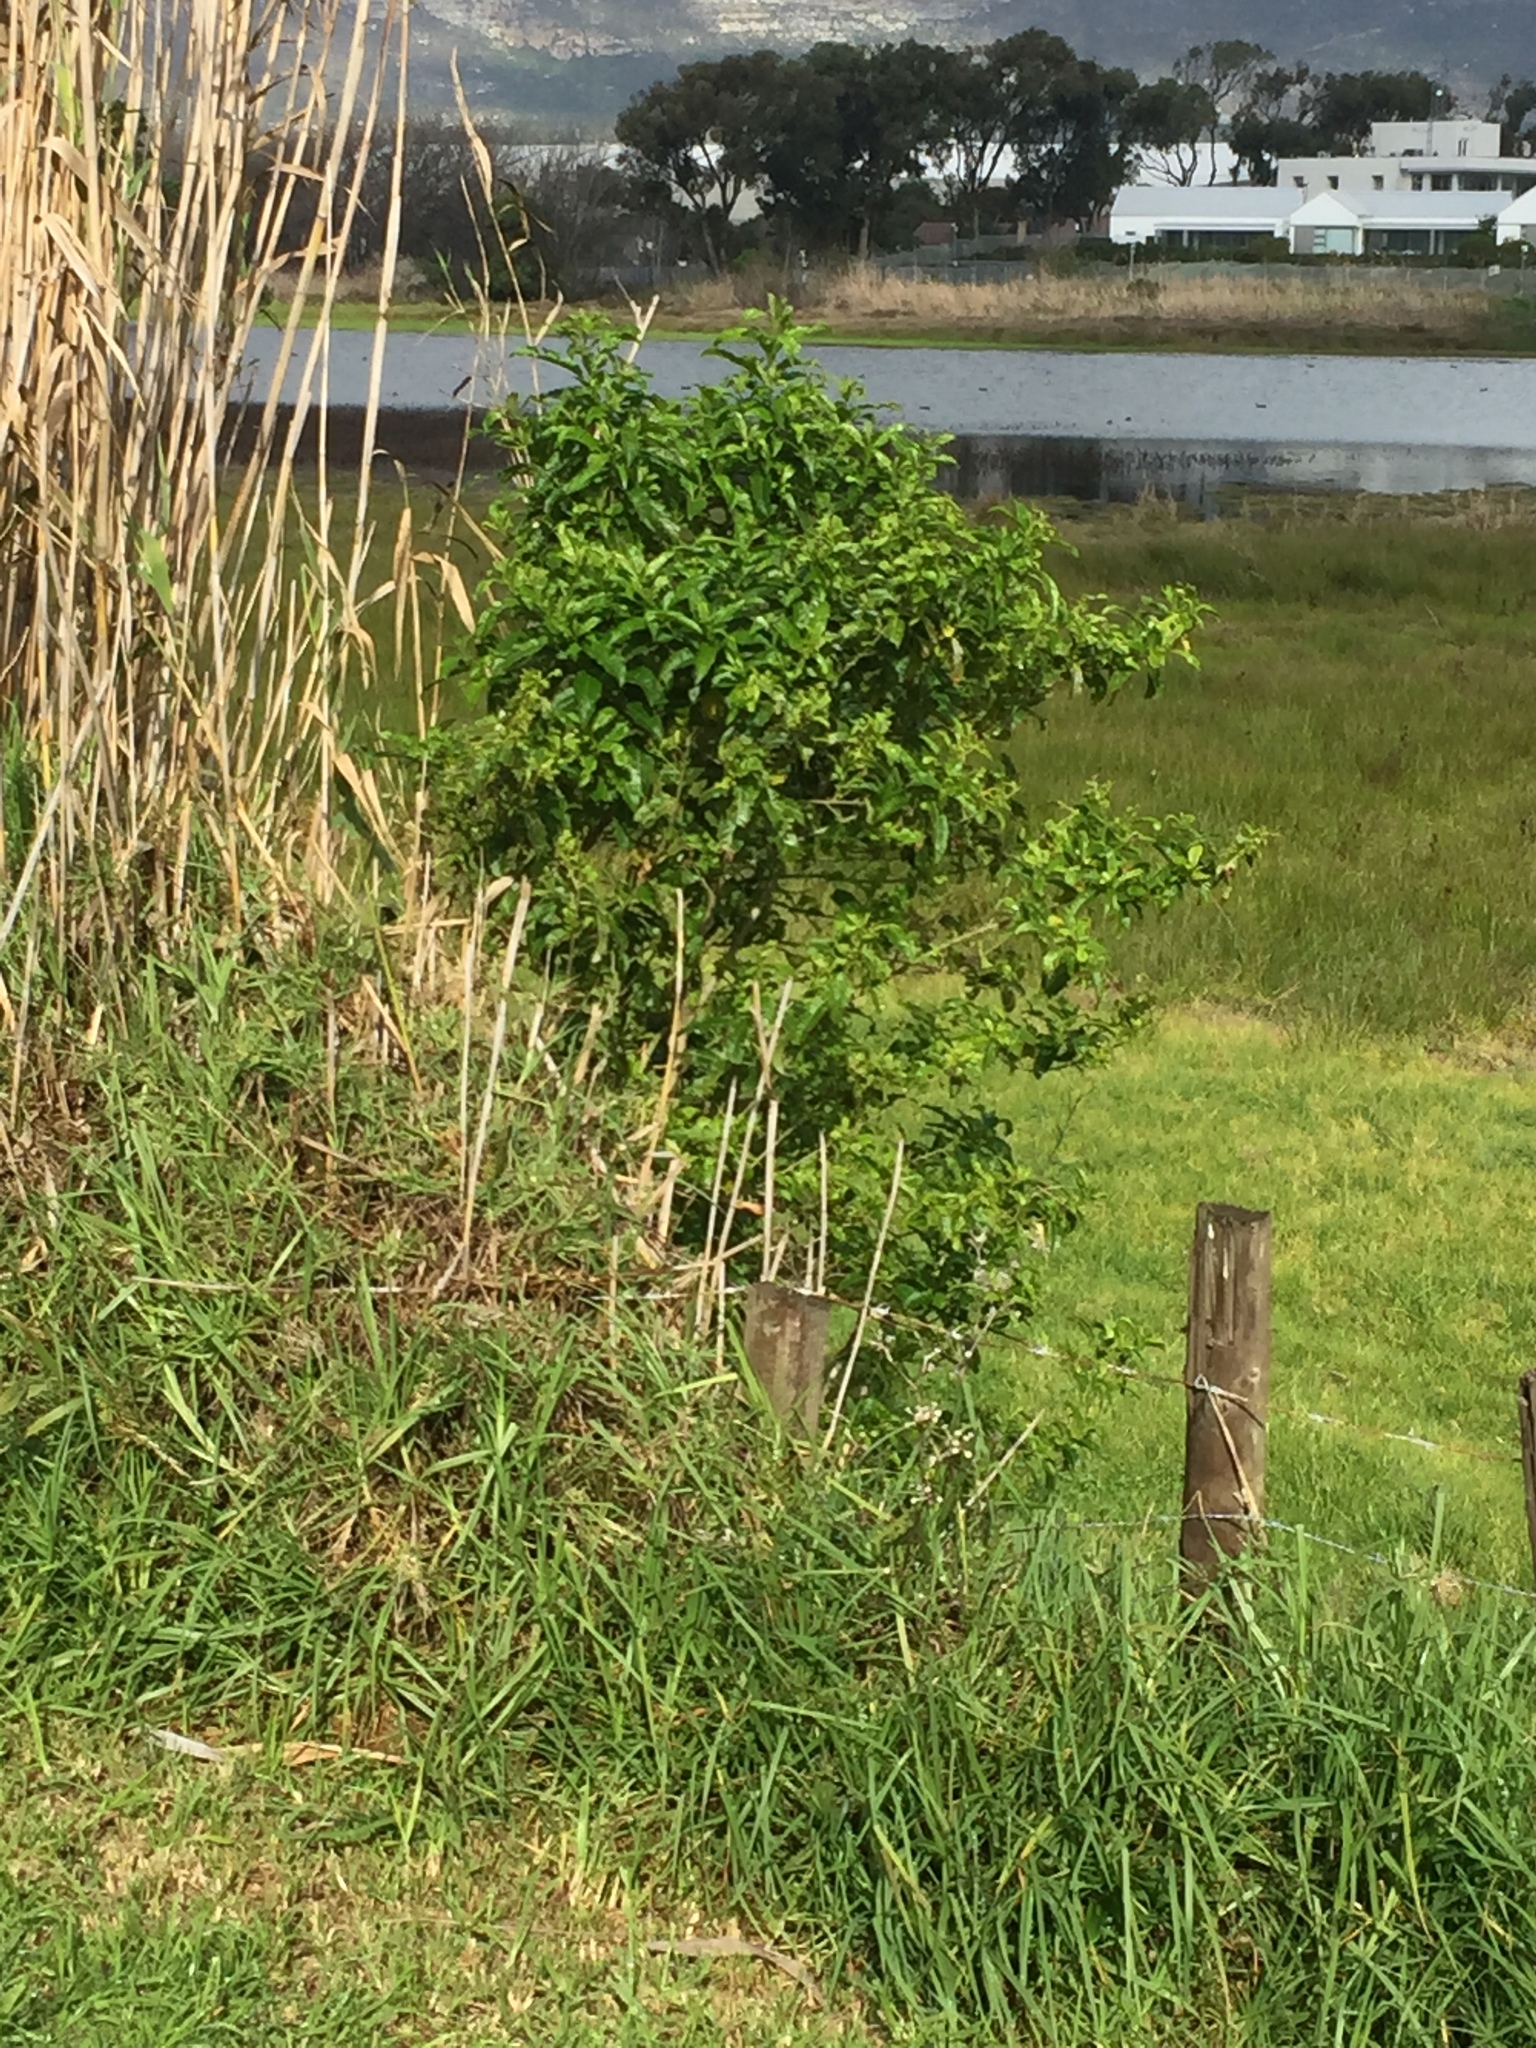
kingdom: Plantae
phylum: Tracheophyta
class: Magnoliopsida
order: Solanales
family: Solanaceae
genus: Cestrum
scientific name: Cestrum laevigatum
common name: Inkberry
